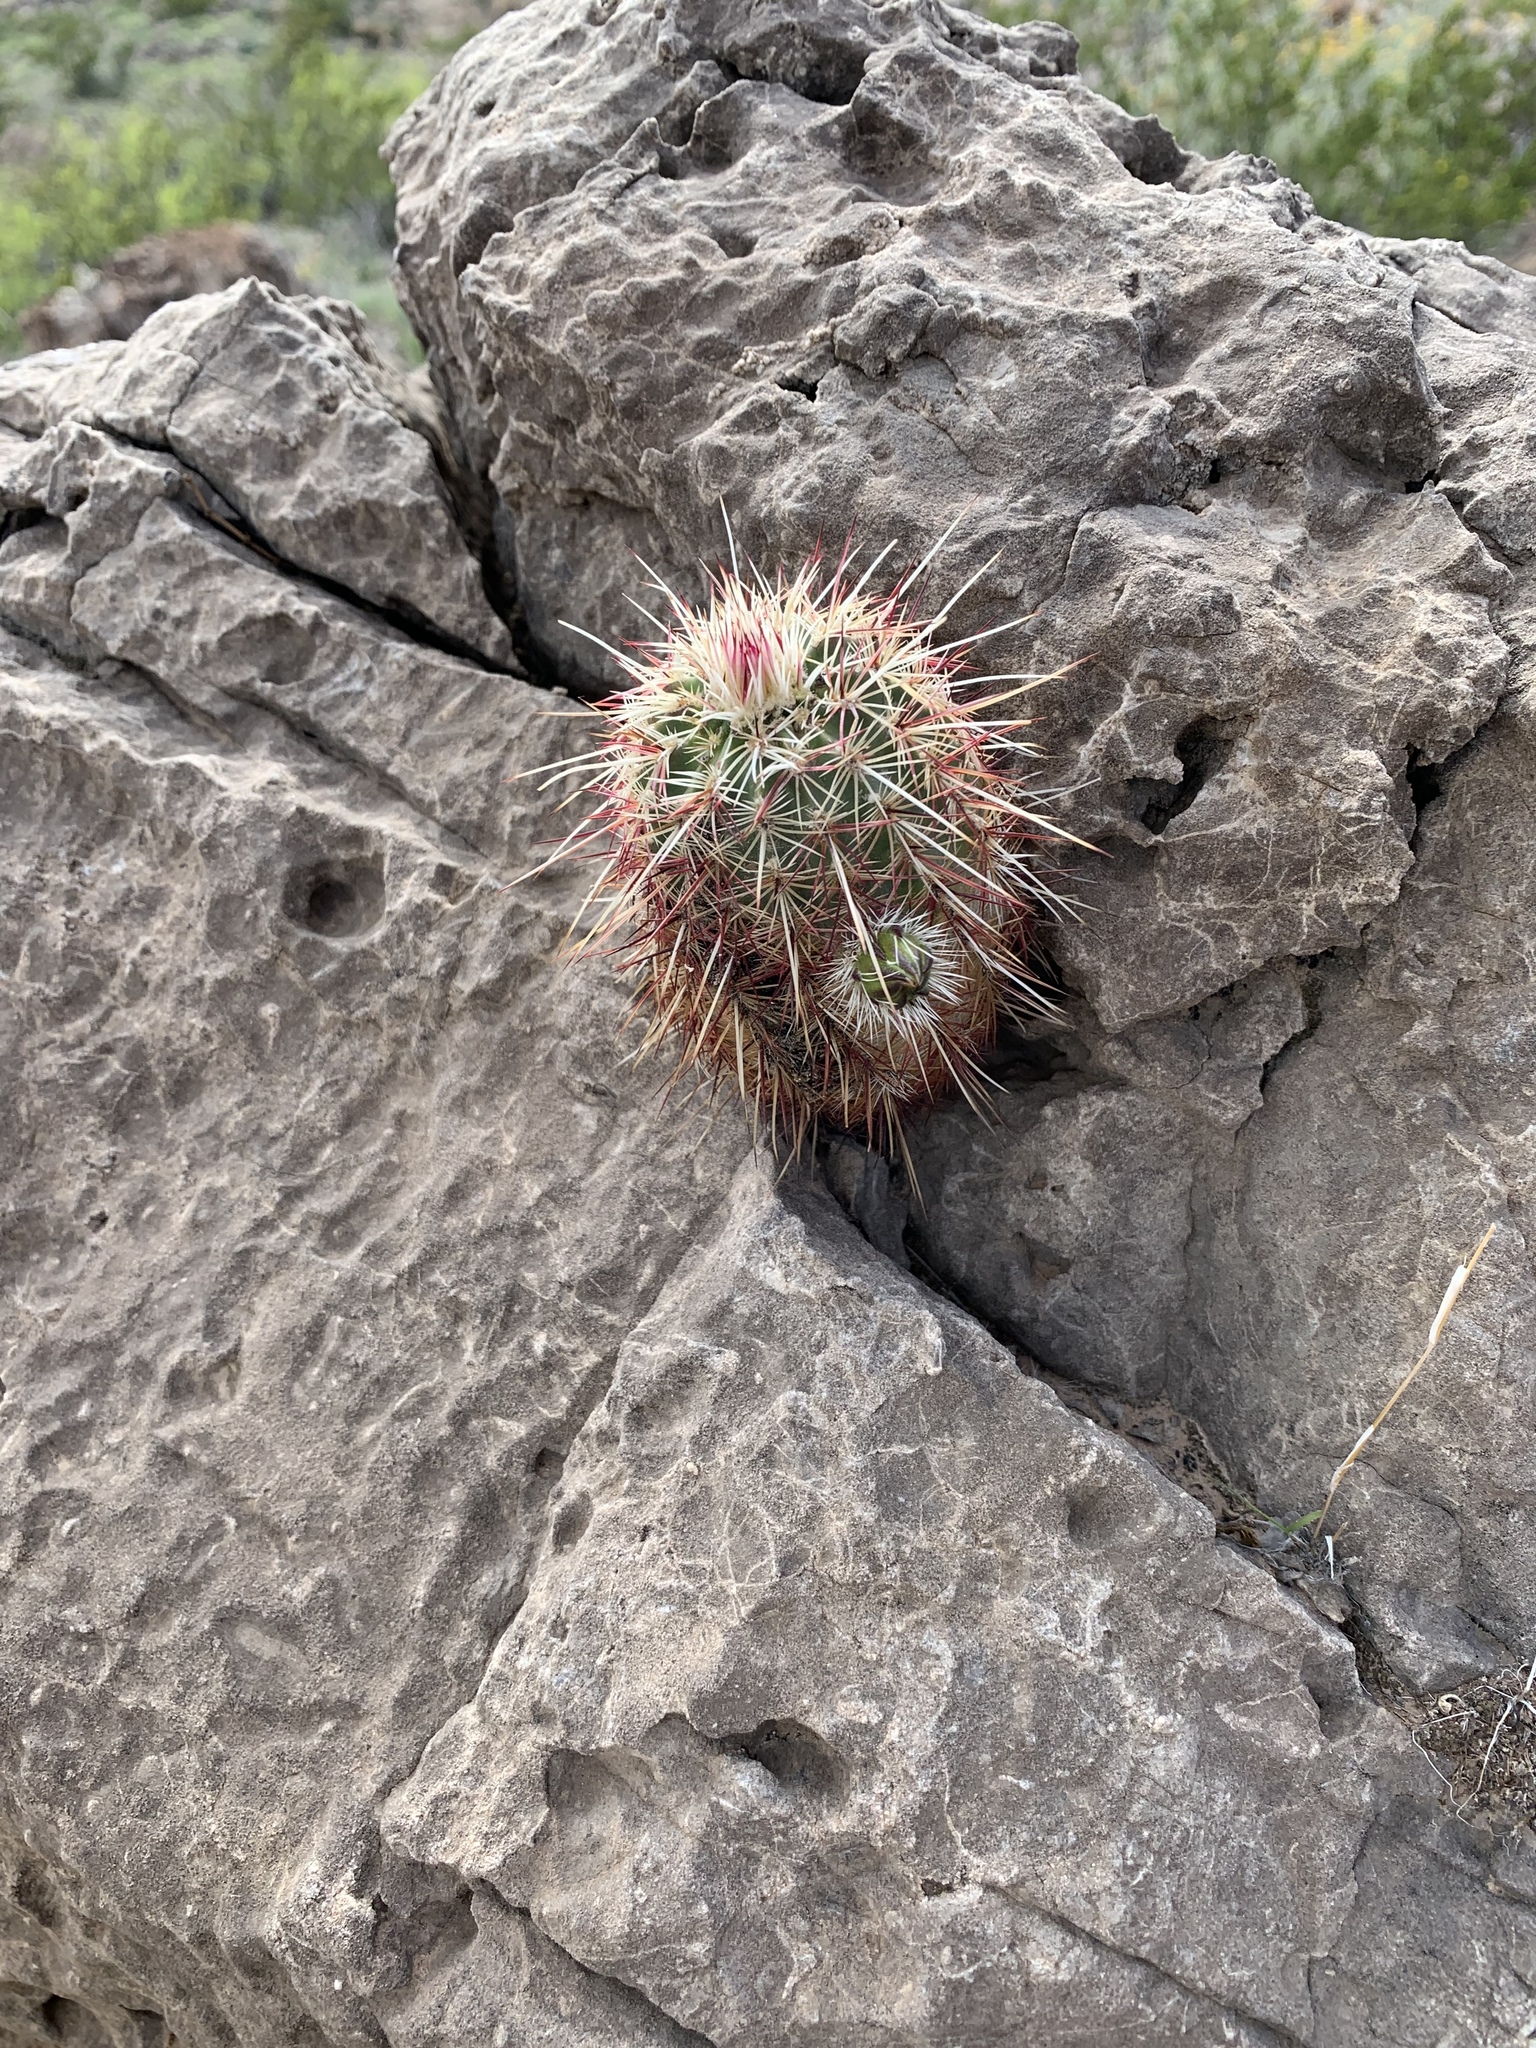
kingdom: Plantae
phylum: Tracheophyta
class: Magnoliopsida
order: Caryophyllales
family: Cactaceae
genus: Echinocereus
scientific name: Echinocereus viridiflorus
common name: Nylon hedgehog cactus
